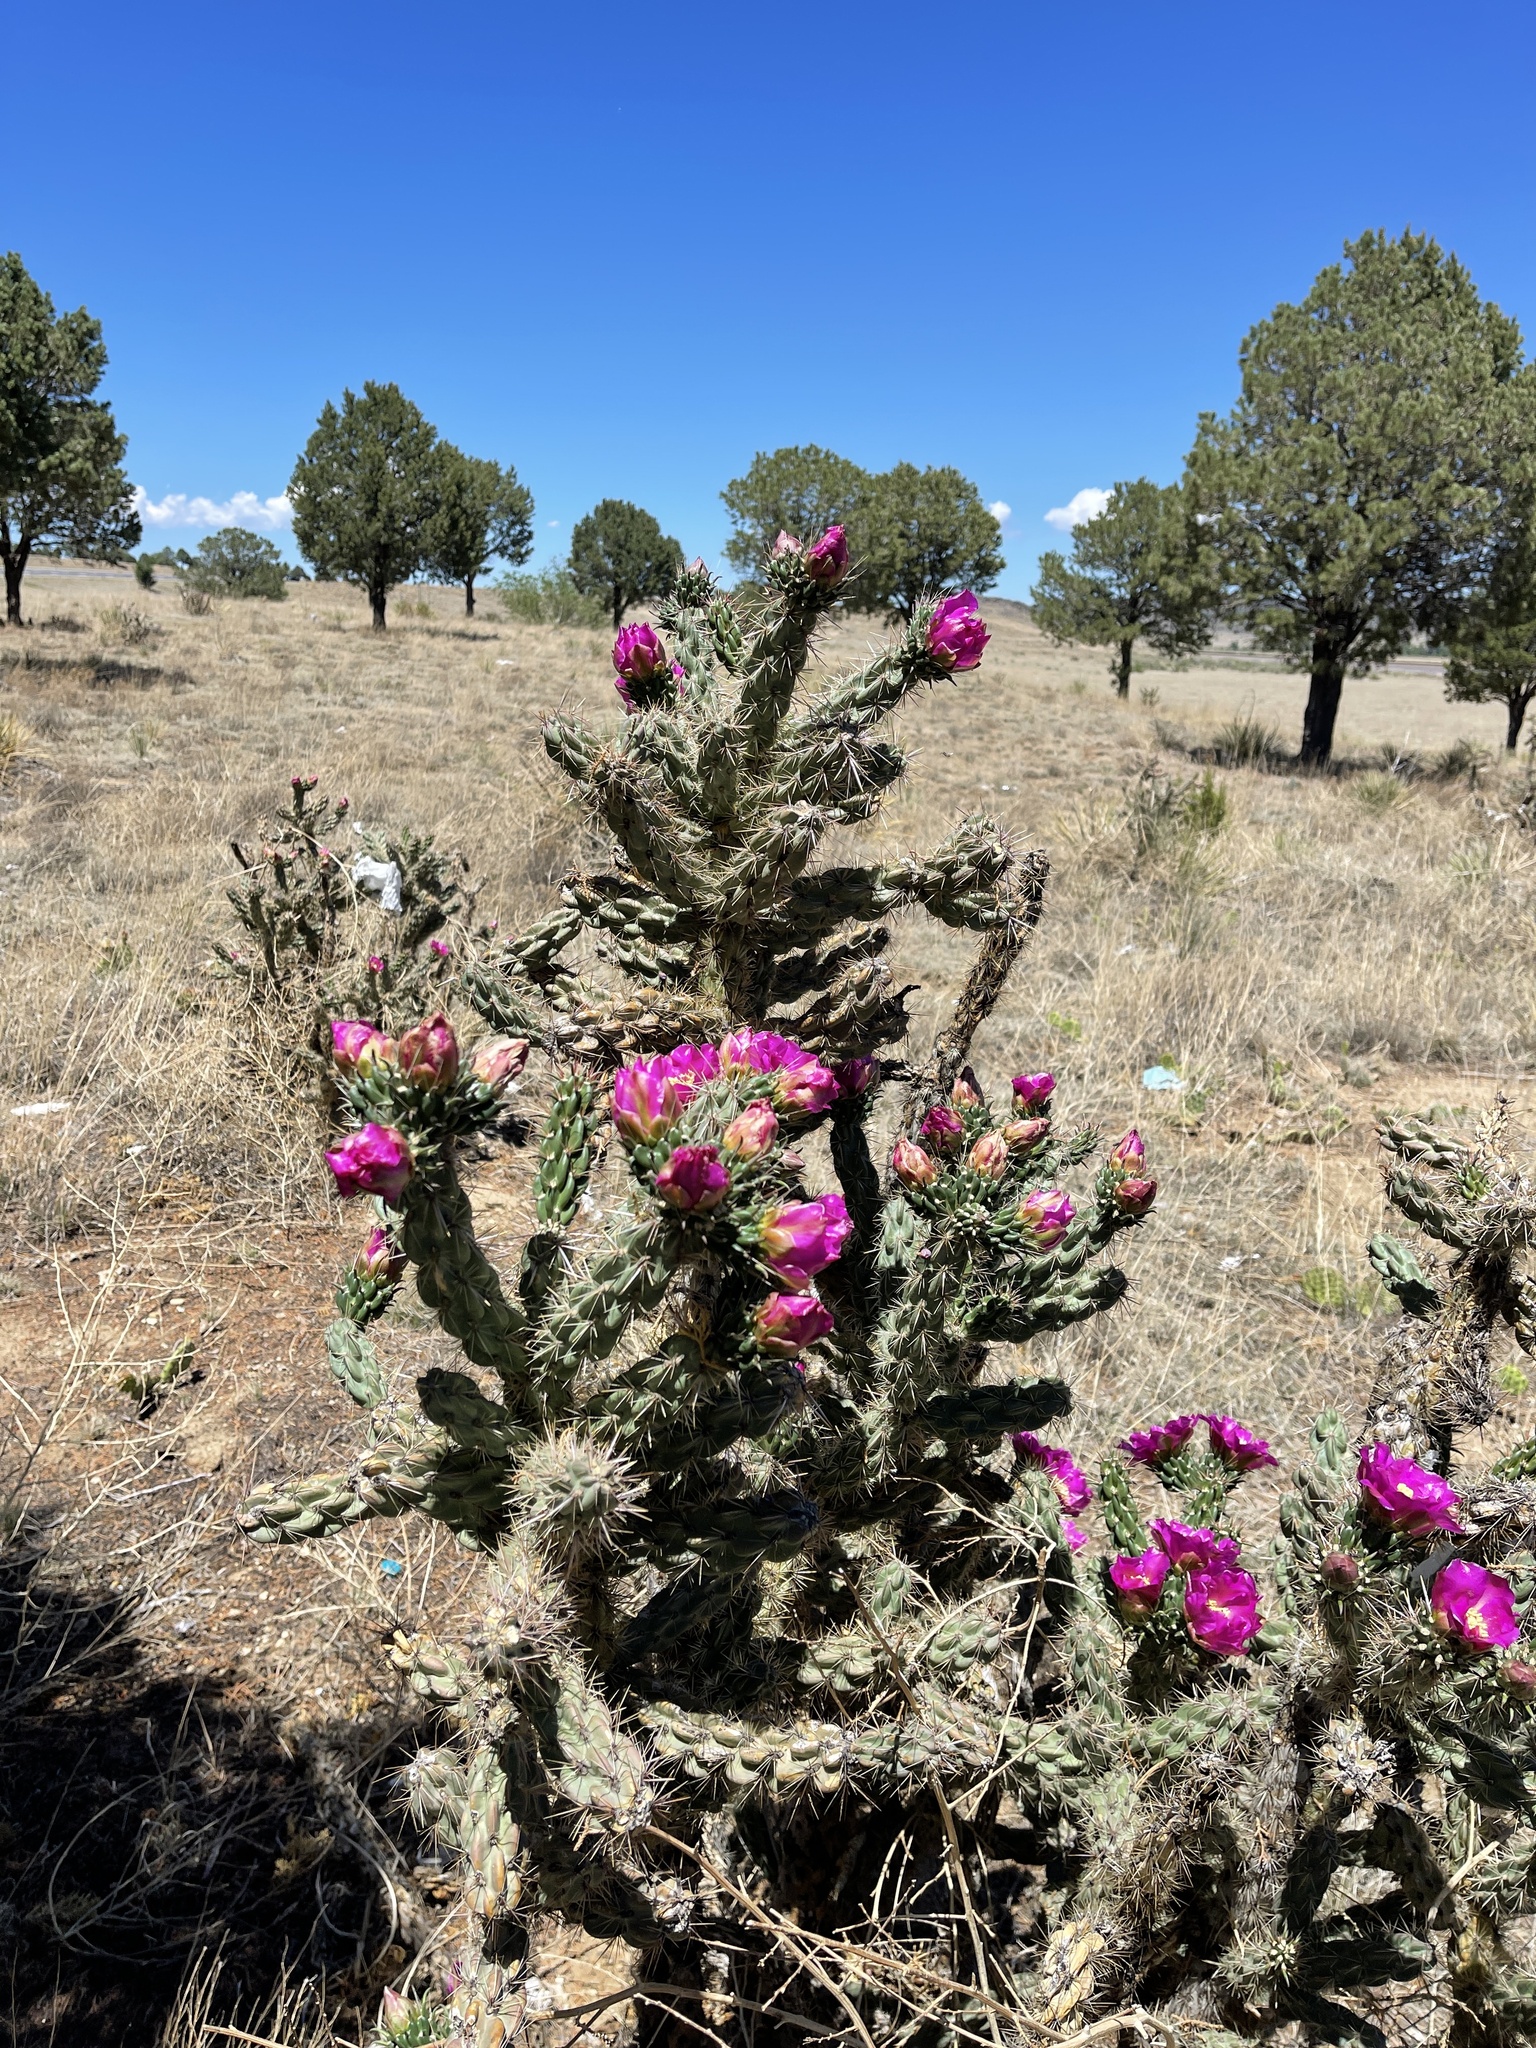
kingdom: Plantae
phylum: Tracheophyta
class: Magnoliopsida
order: Caryophyllales
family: Cactaceae
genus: Cylindropuntia
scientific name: Cylindropuntia imbricata
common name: Candelabrum cactus
